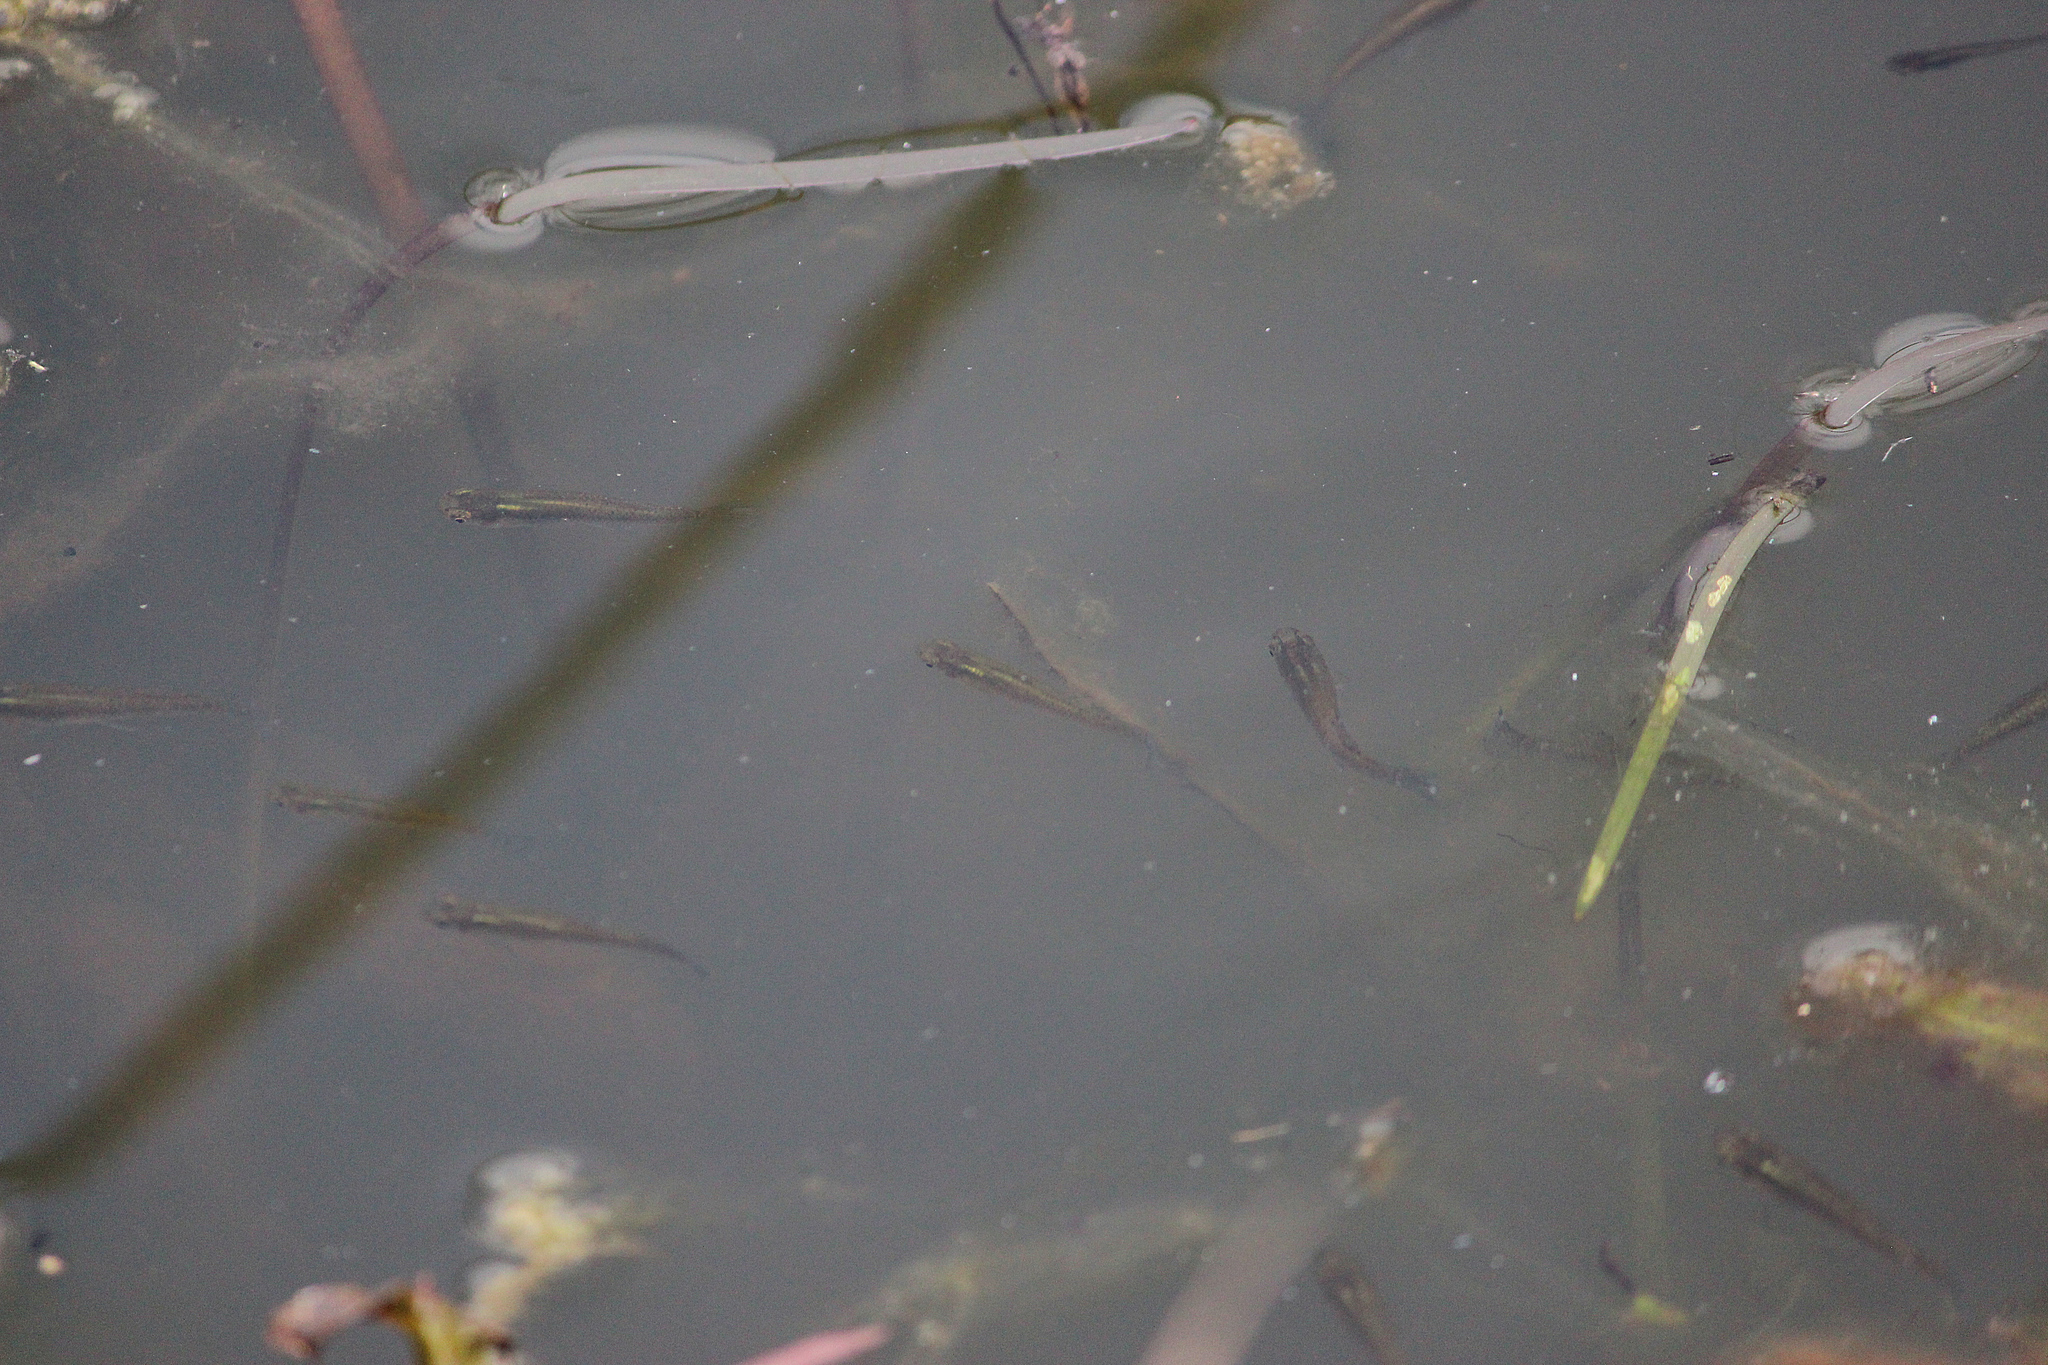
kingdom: Animalia
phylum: Chordata
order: Cyprinodontiformes
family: Poeciliidae
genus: Gambusia
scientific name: Gambusia holbrooki
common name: Eastern mosquitofish
